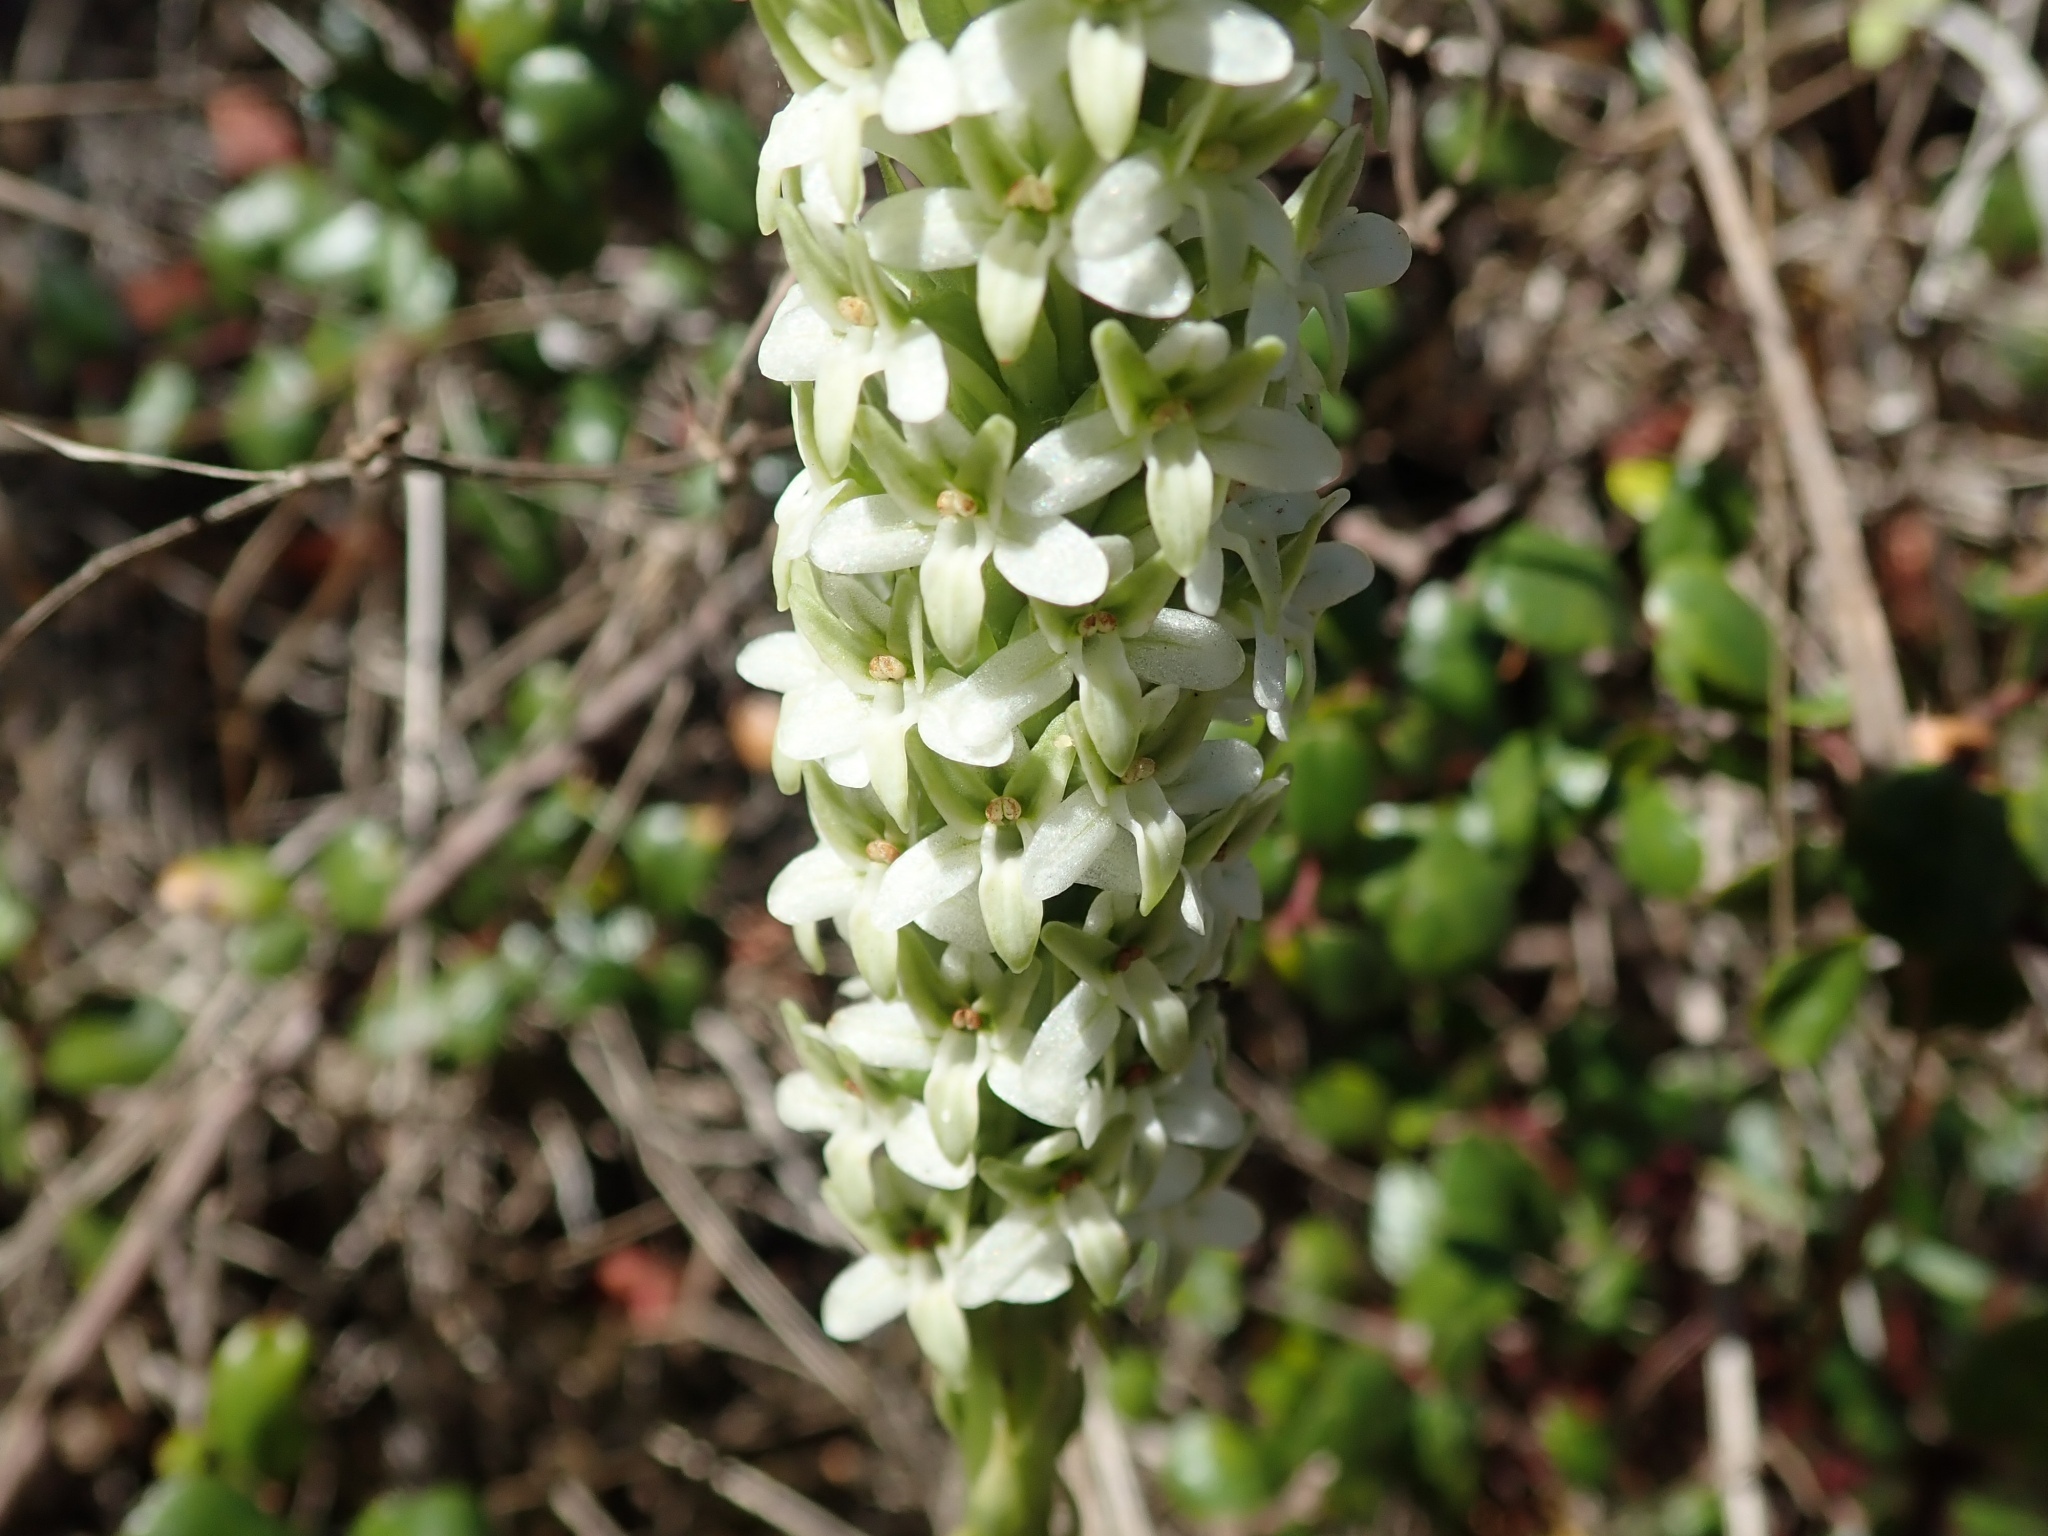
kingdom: Plantae
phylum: Tracheophyta
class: Liliopsida
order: Asparagales
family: Orchidaceae
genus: Platanthera
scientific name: Platanthera elegans
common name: Coast piperia
